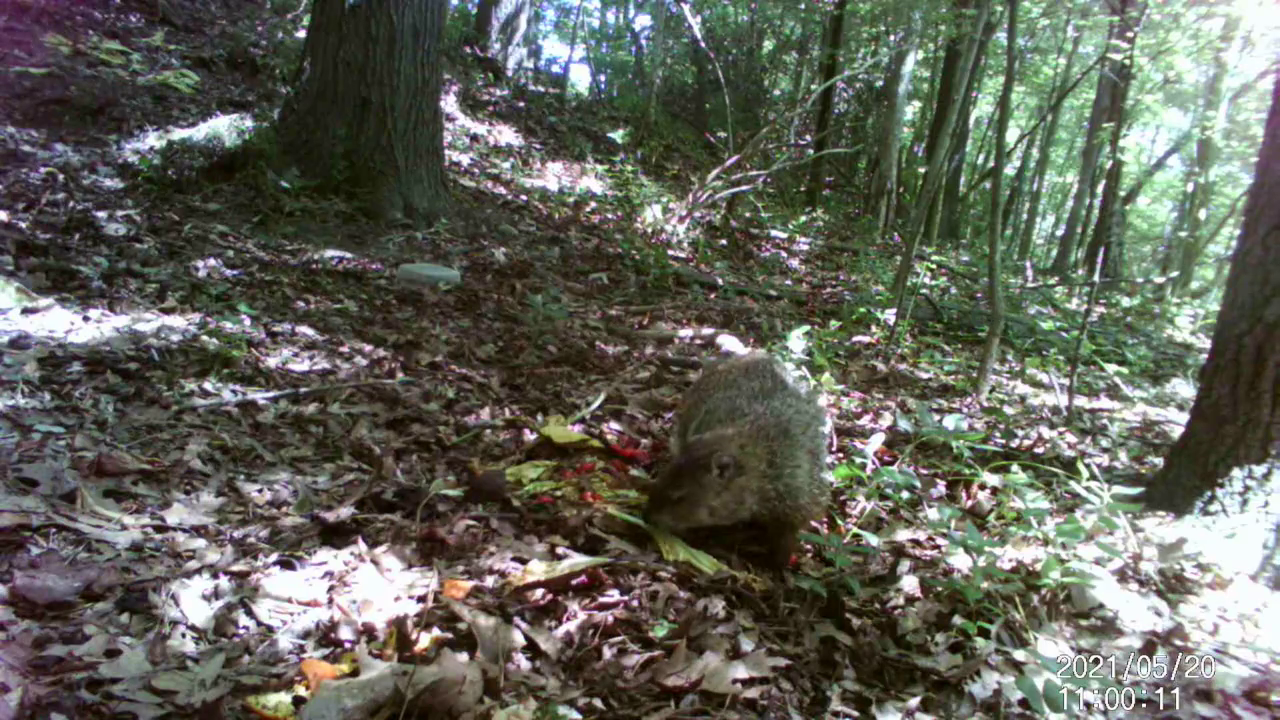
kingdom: Animalia
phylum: Chordata
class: Mammalia
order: Rodentia
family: Sciuridae
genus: Marmota
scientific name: Marmota monax
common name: Groundhog
